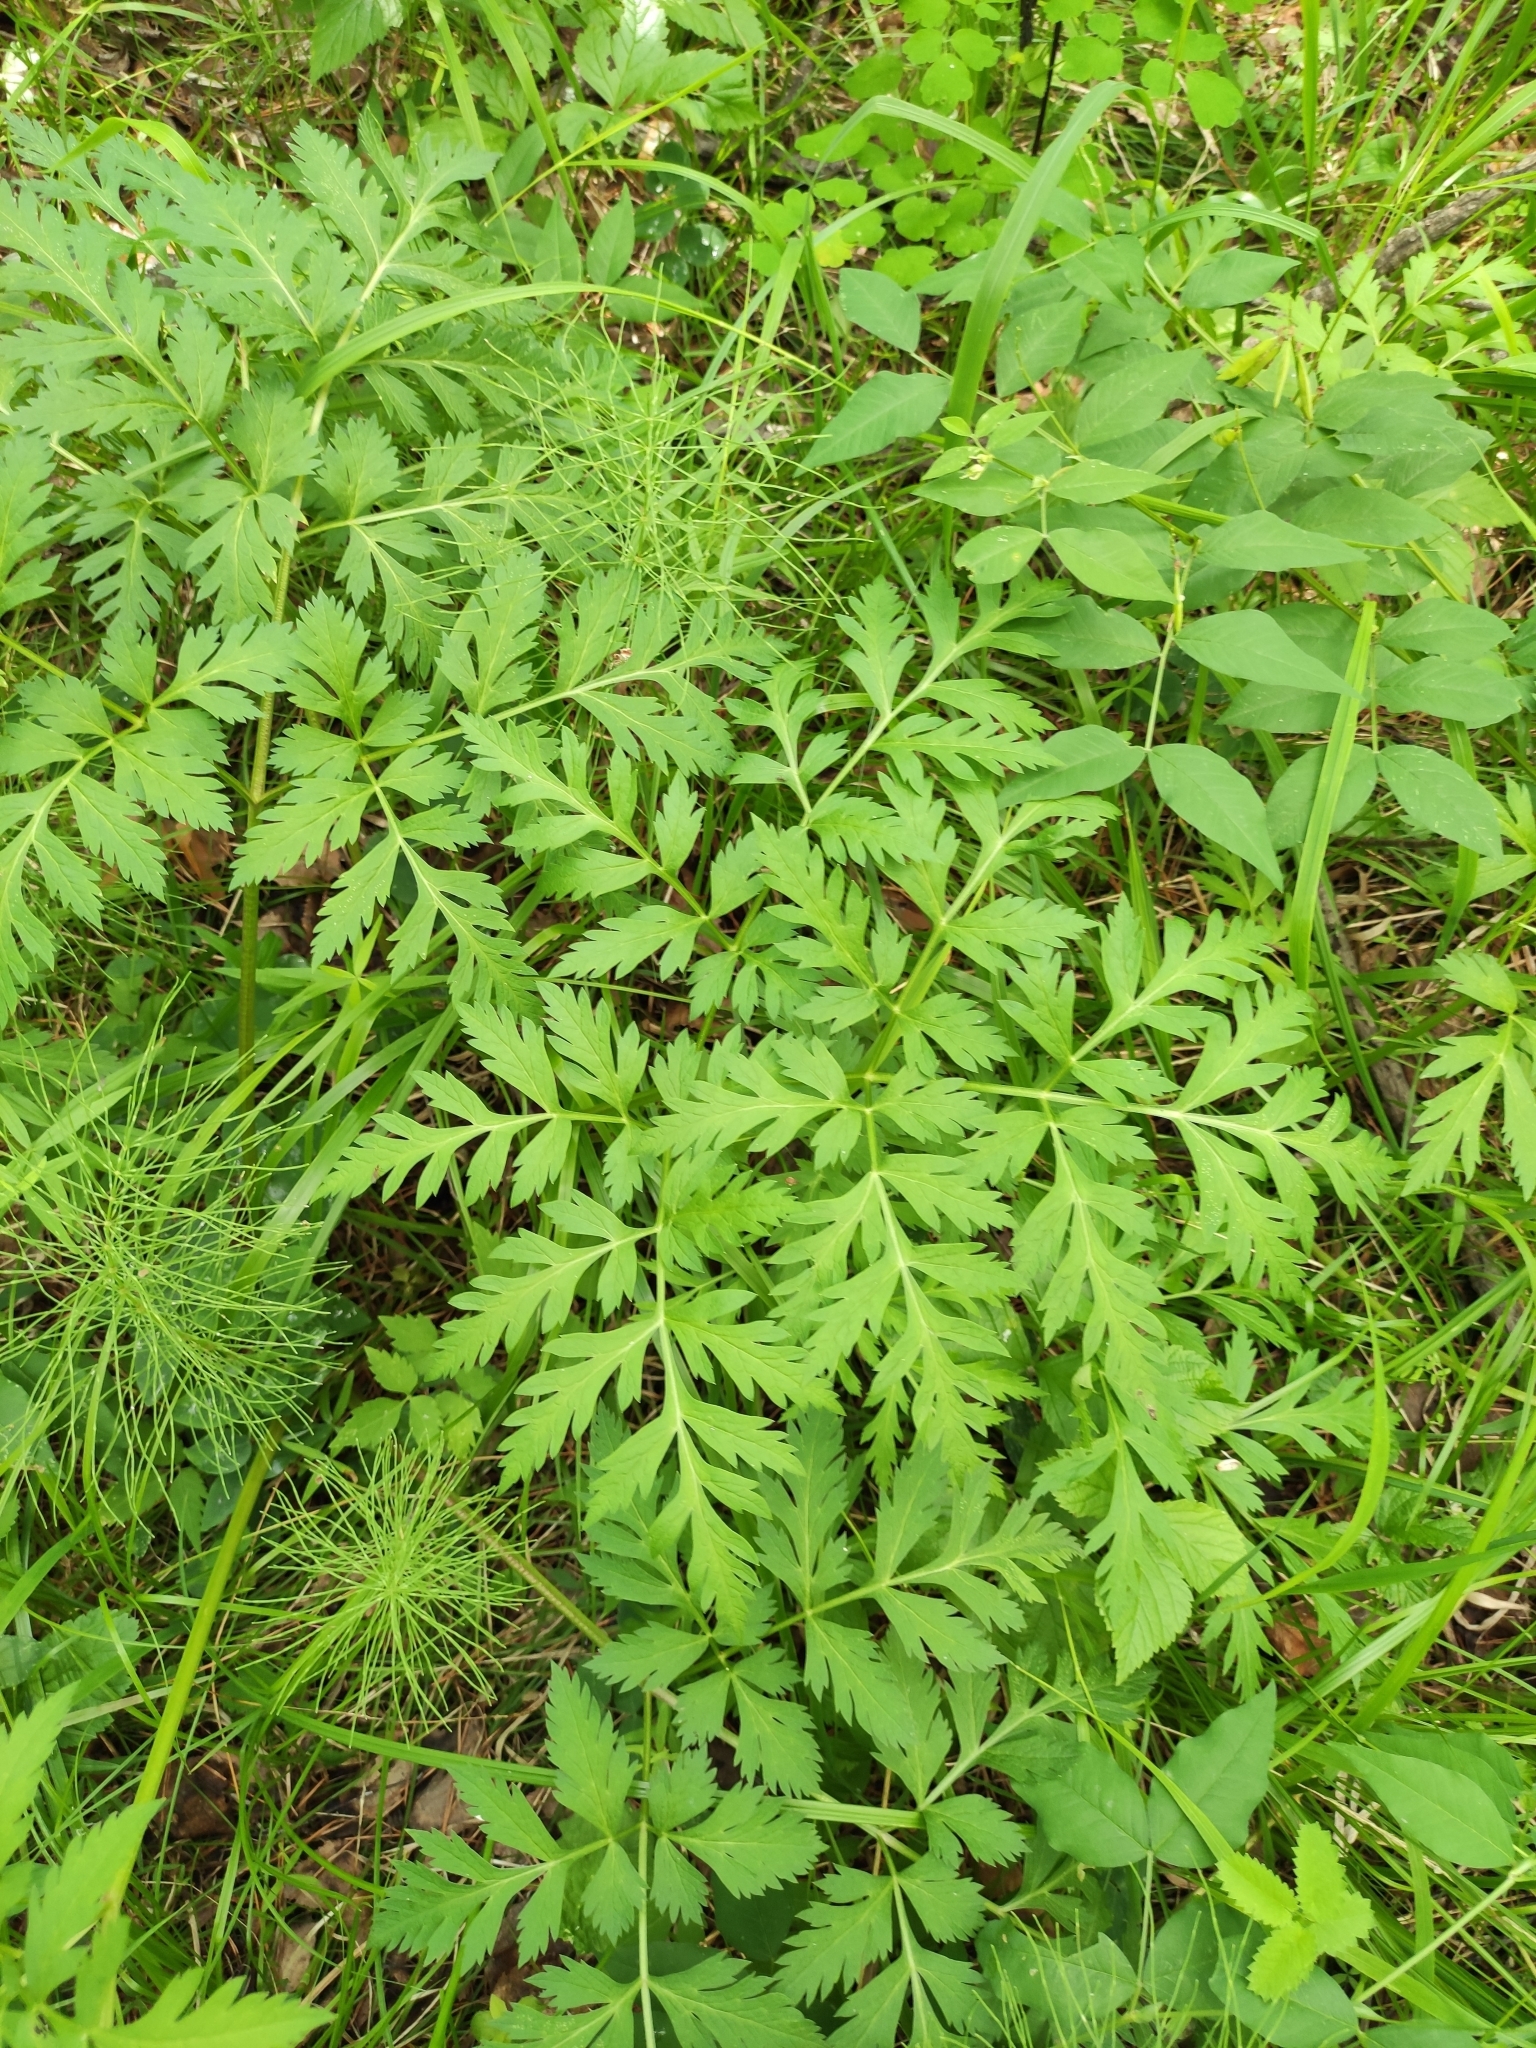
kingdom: Plantae
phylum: Tracheophyta
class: Magnoliopsida
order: Apiales
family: Apiaceae
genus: Pleurospermum
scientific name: Pleurospermum uralense
